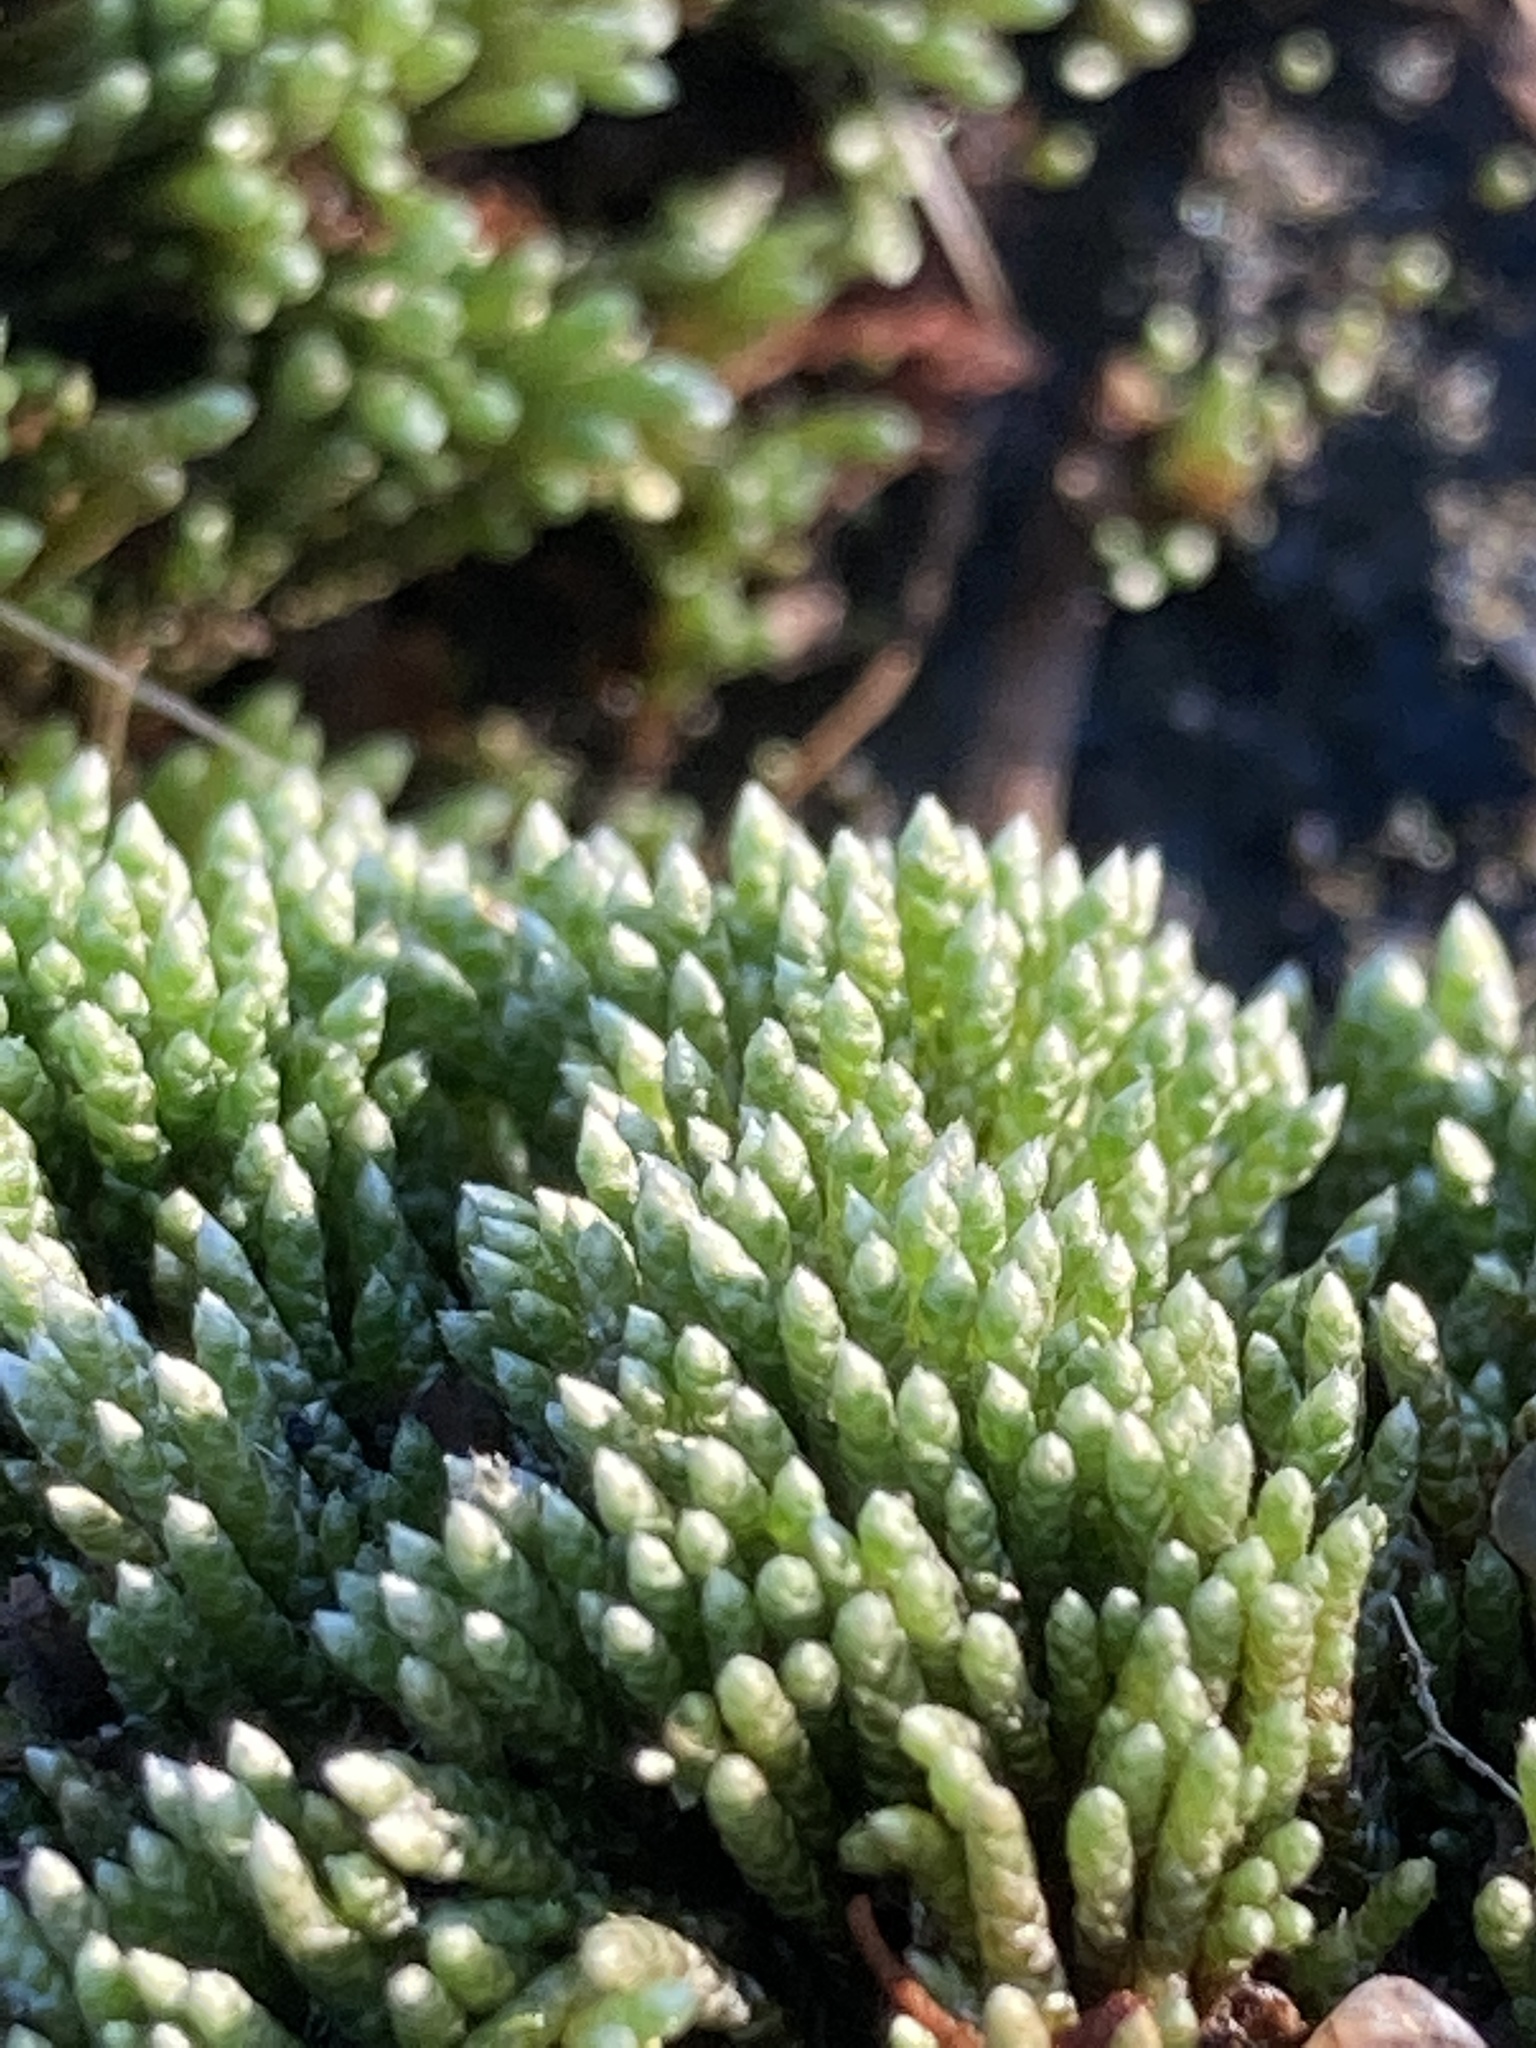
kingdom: Plantae
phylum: Bryophyta
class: Bryopsida
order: Bryales
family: Bryaceae
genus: Bryum
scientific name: Bryum argenteum
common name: Silver-moss
